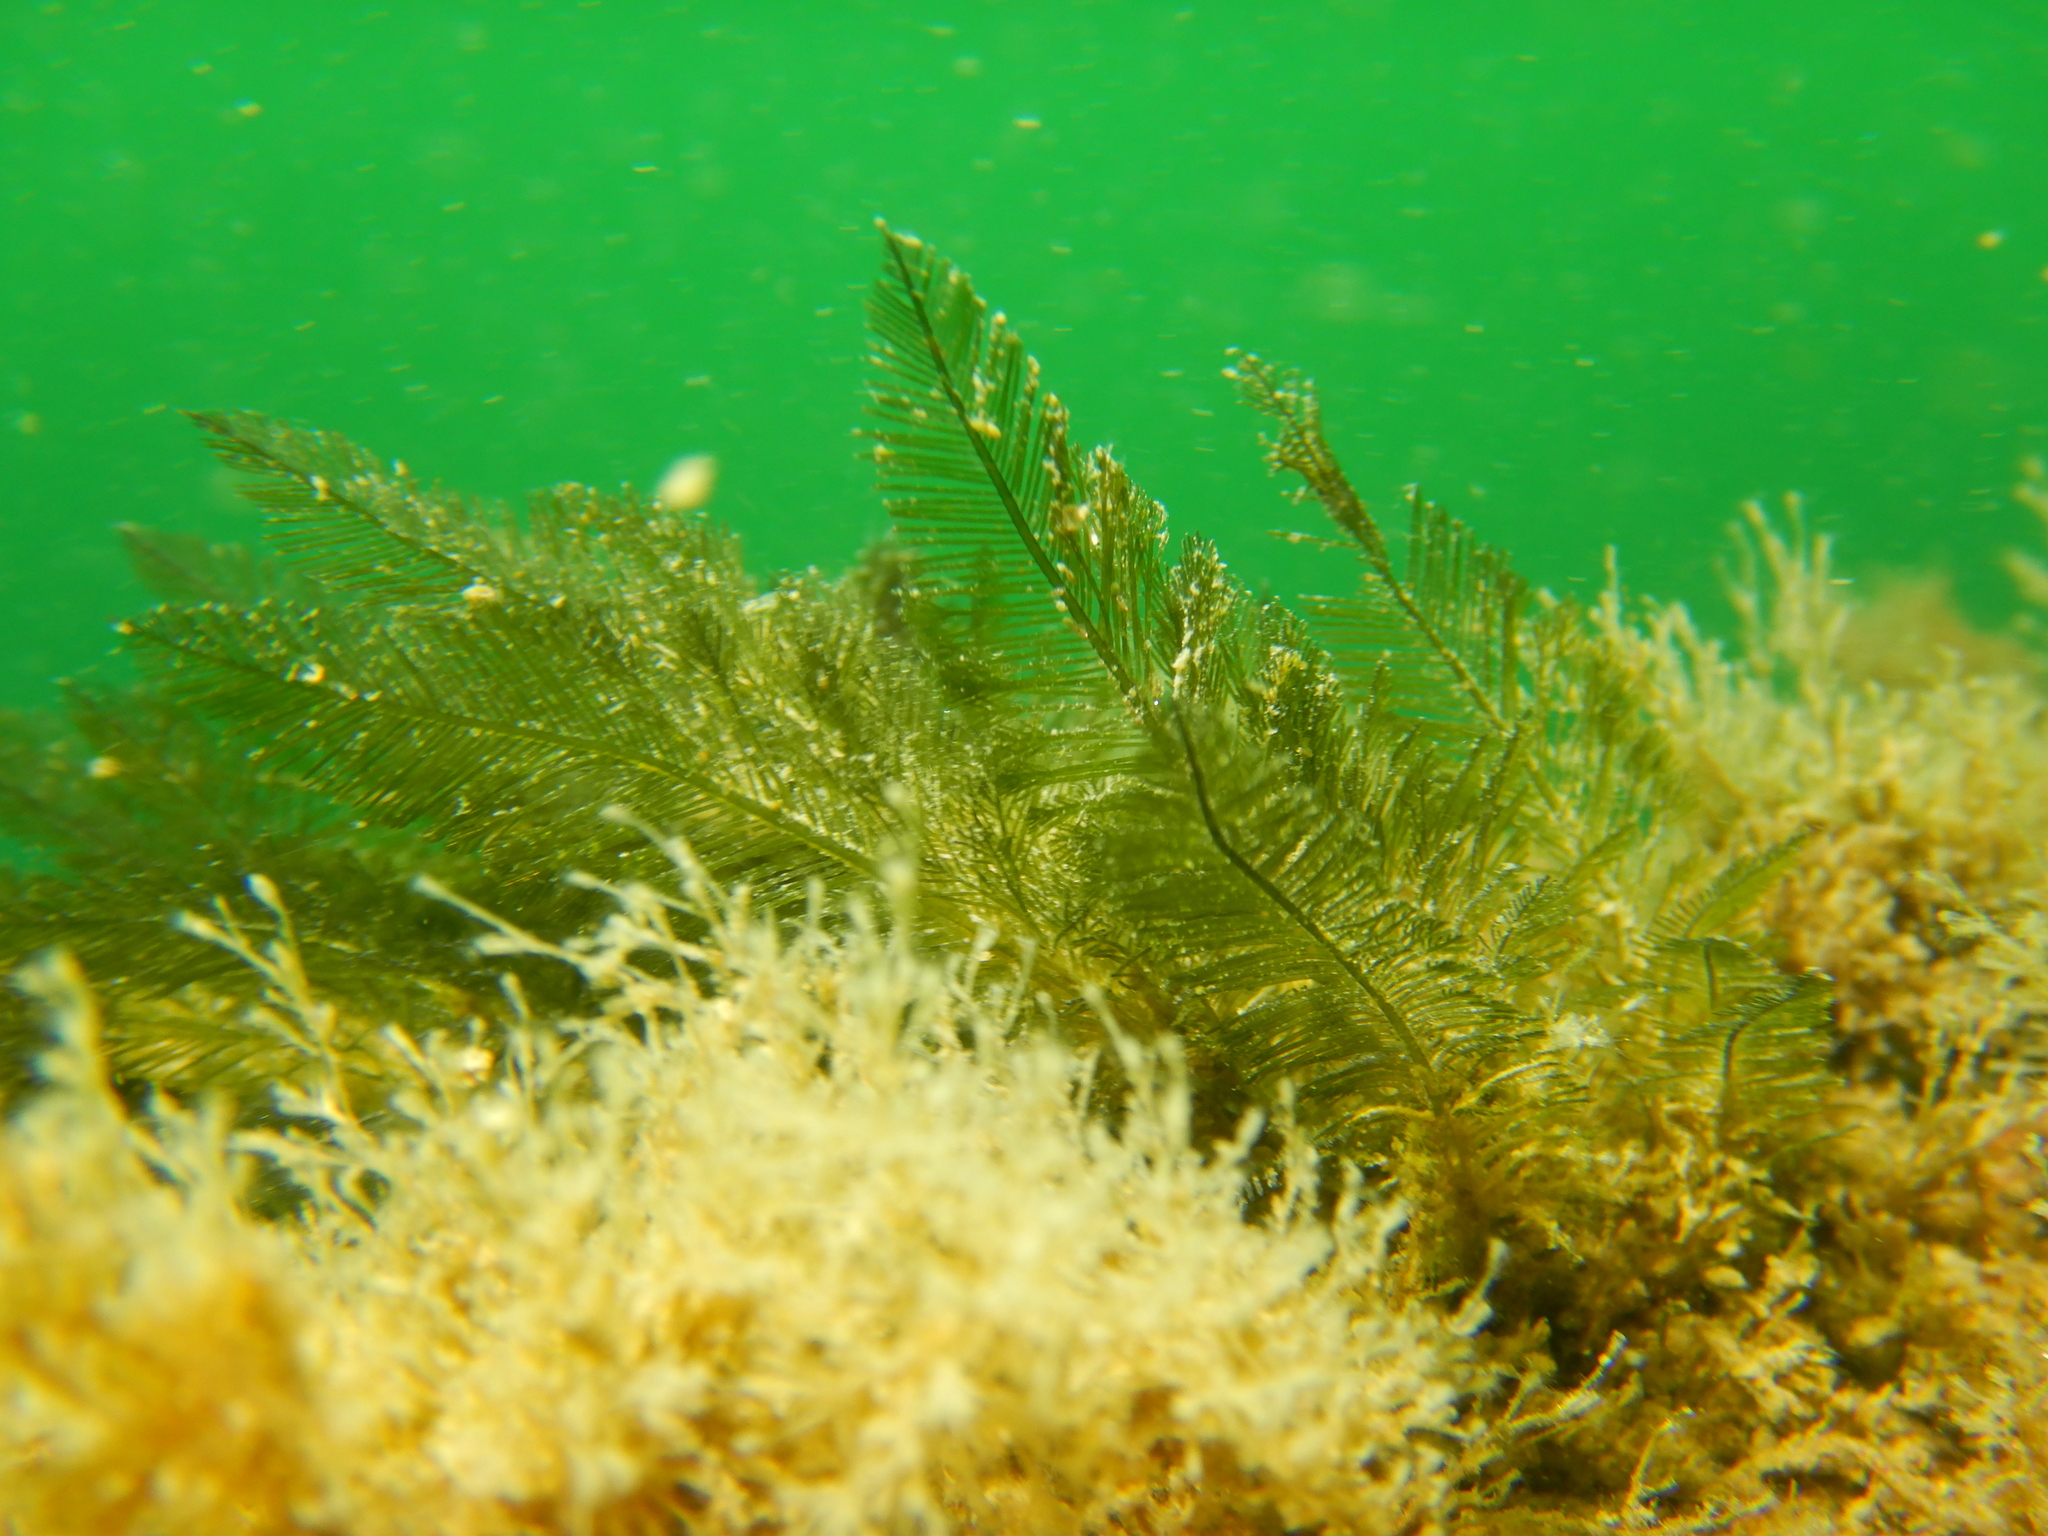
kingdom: Plantae
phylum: Chlorophyta
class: Ulvophyceae
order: Bryopsidales
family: Bryopsidaceae
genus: Bryopsis
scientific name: Bryopsis plumosa
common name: Hen pen
